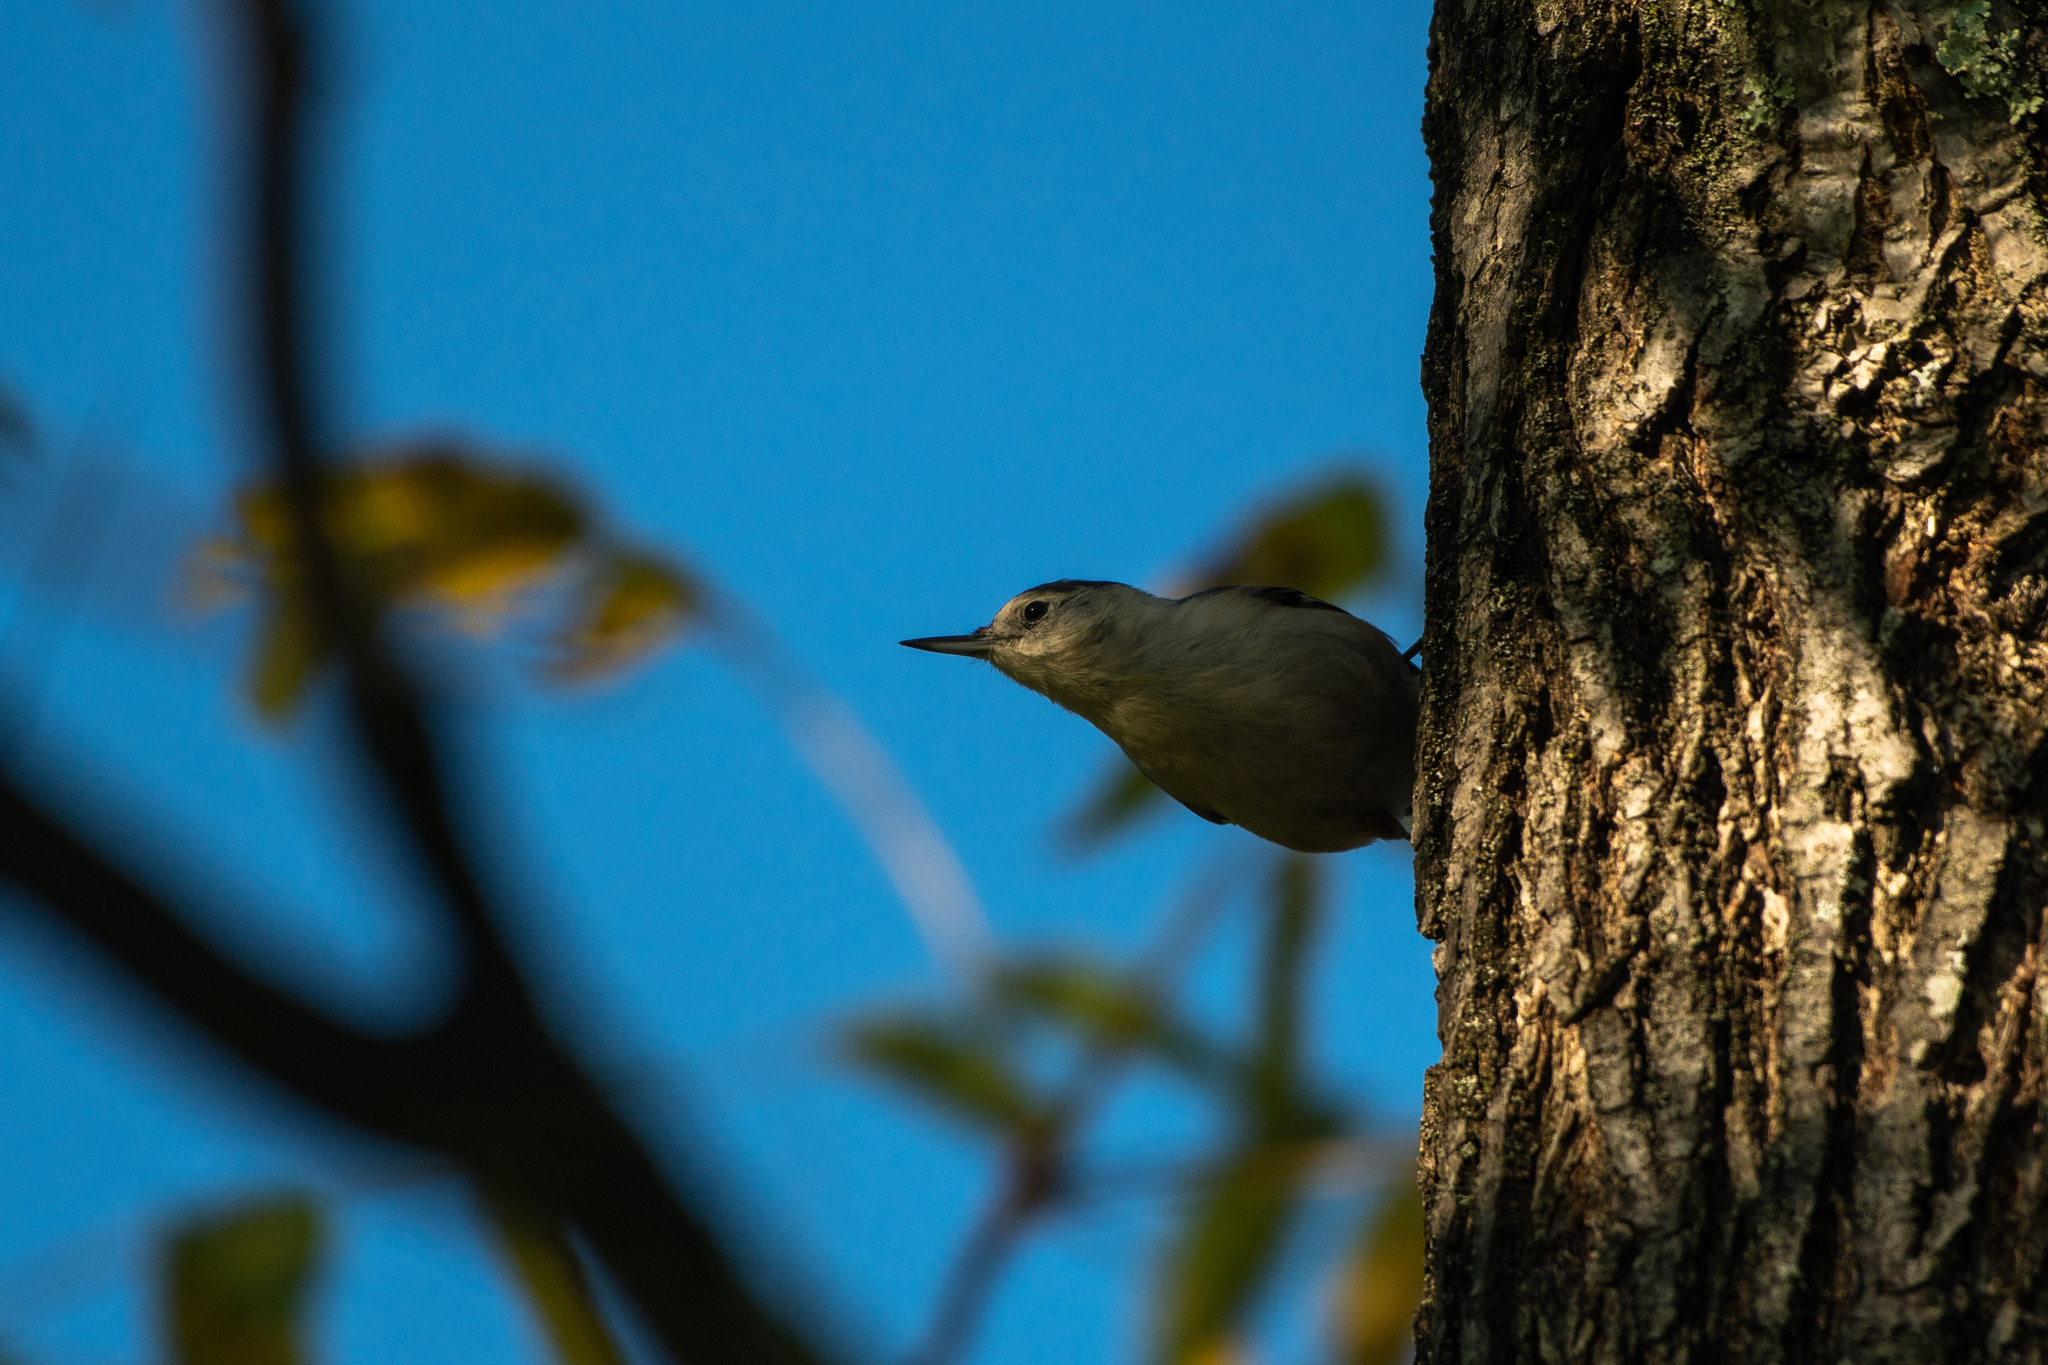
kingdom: Animalia
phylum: Chordata
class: Aves
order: Passeriformes
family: Sittidae
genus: Sitta
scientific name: Sitta carolinensis
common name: White-breasted nuthatch
